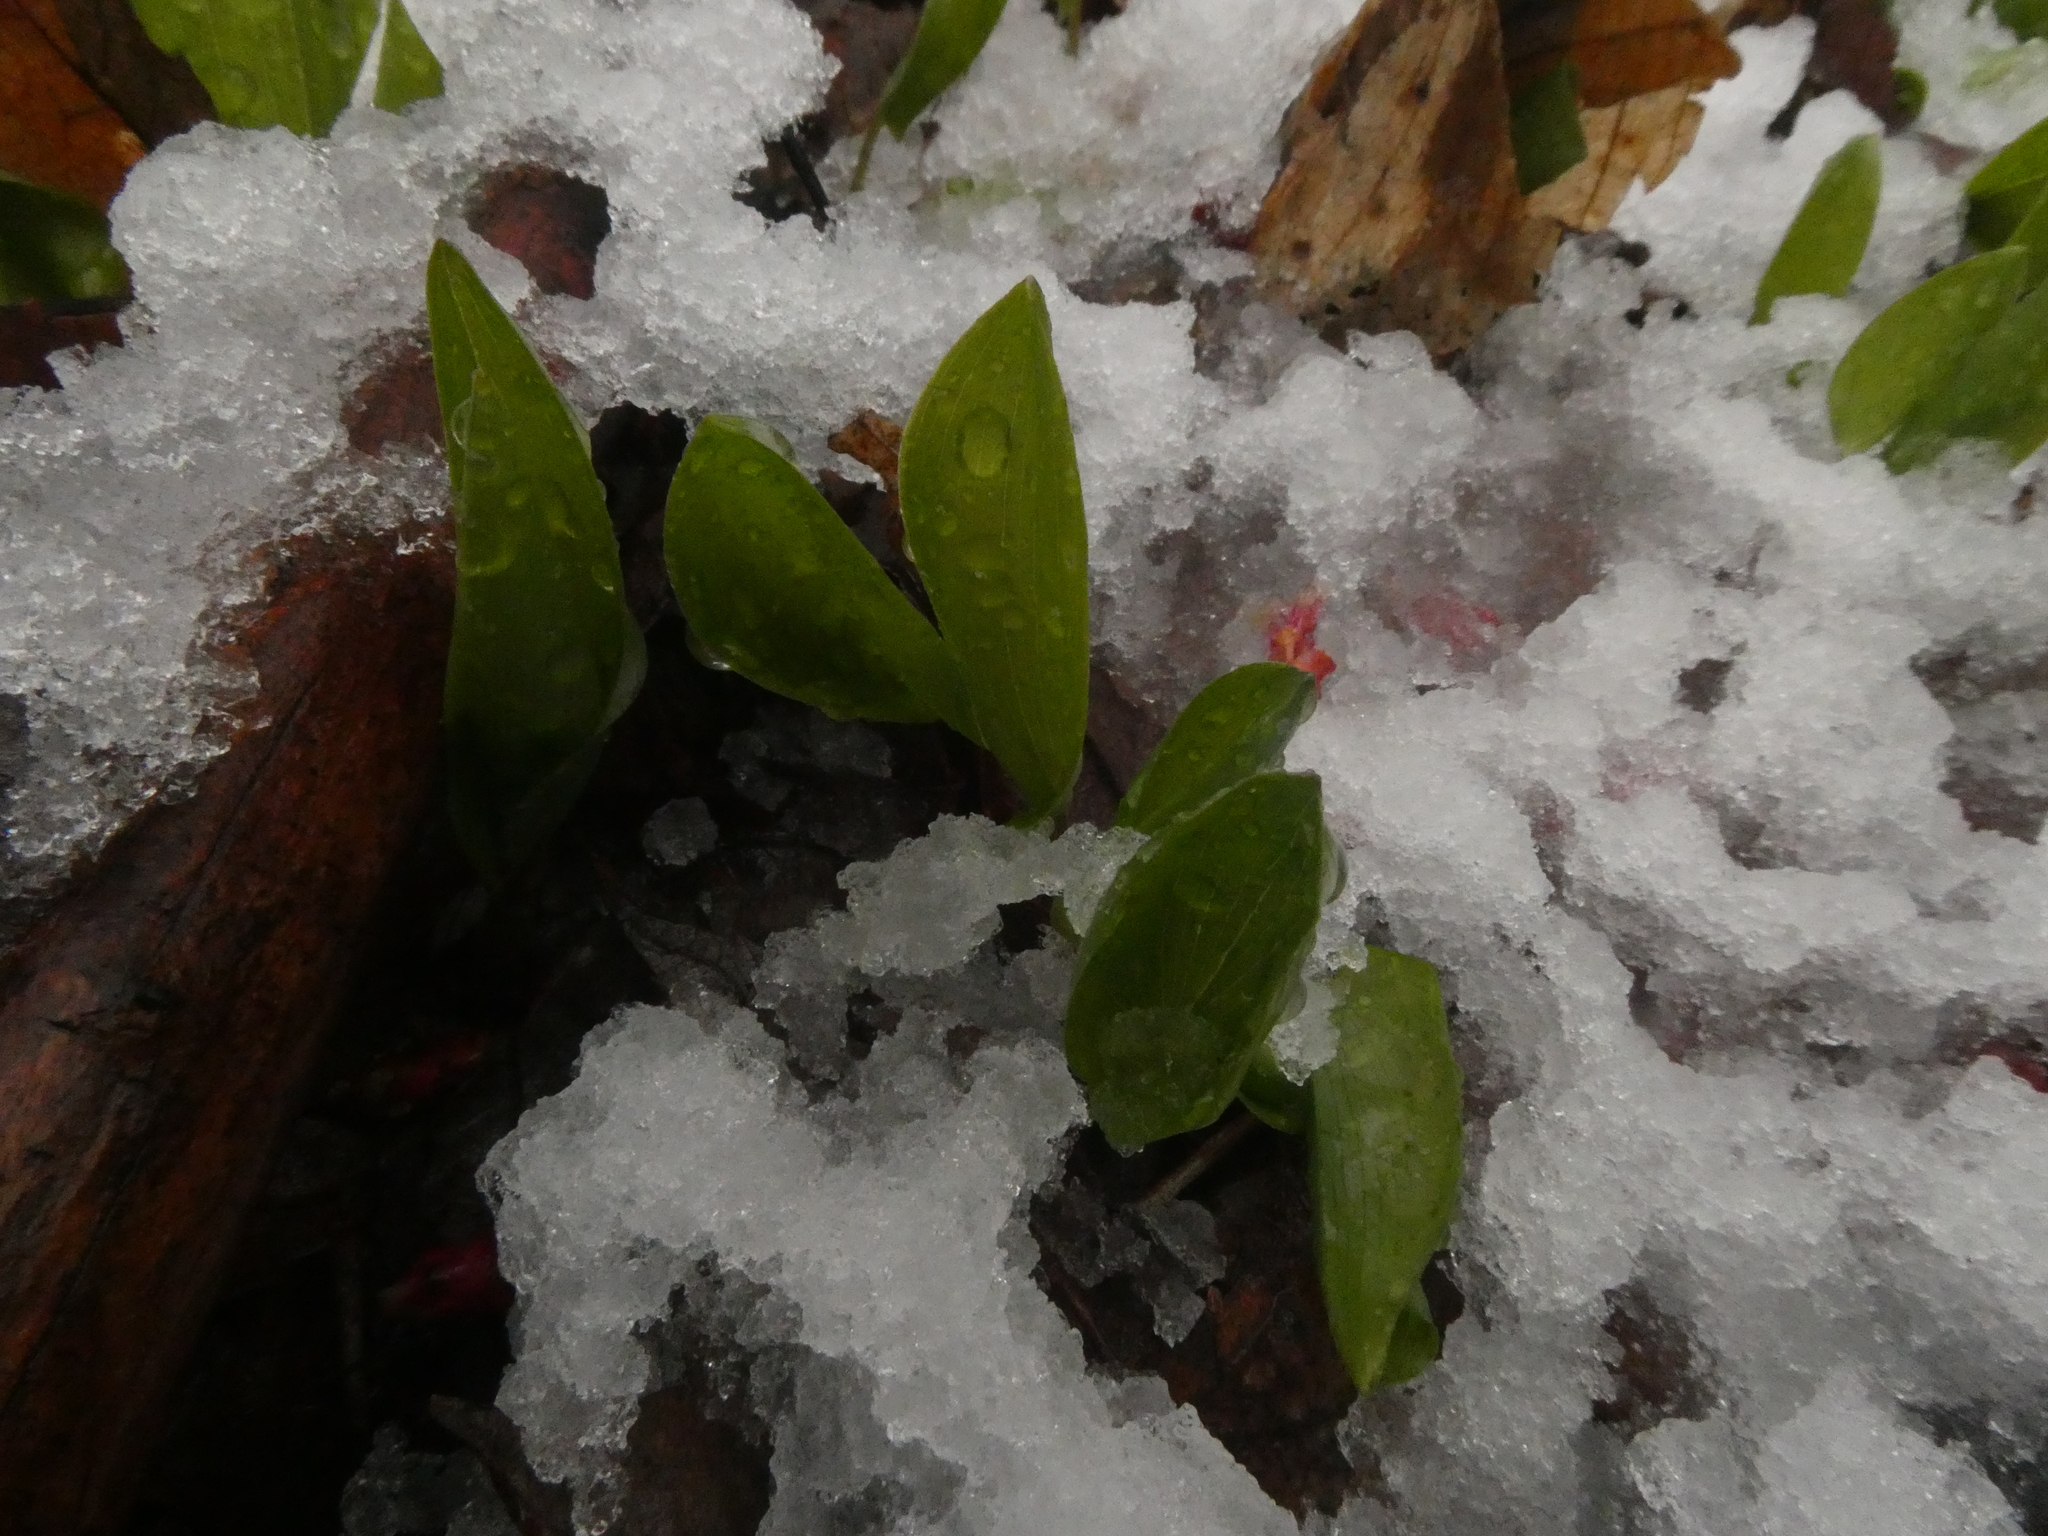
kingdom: Plantae
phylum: Tracheophyta
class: Liliopsida
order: Asparagales
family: Asparagaceae
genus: Maianthemum
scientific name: Maianthemum canadense
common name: False lily-of-the-valley
